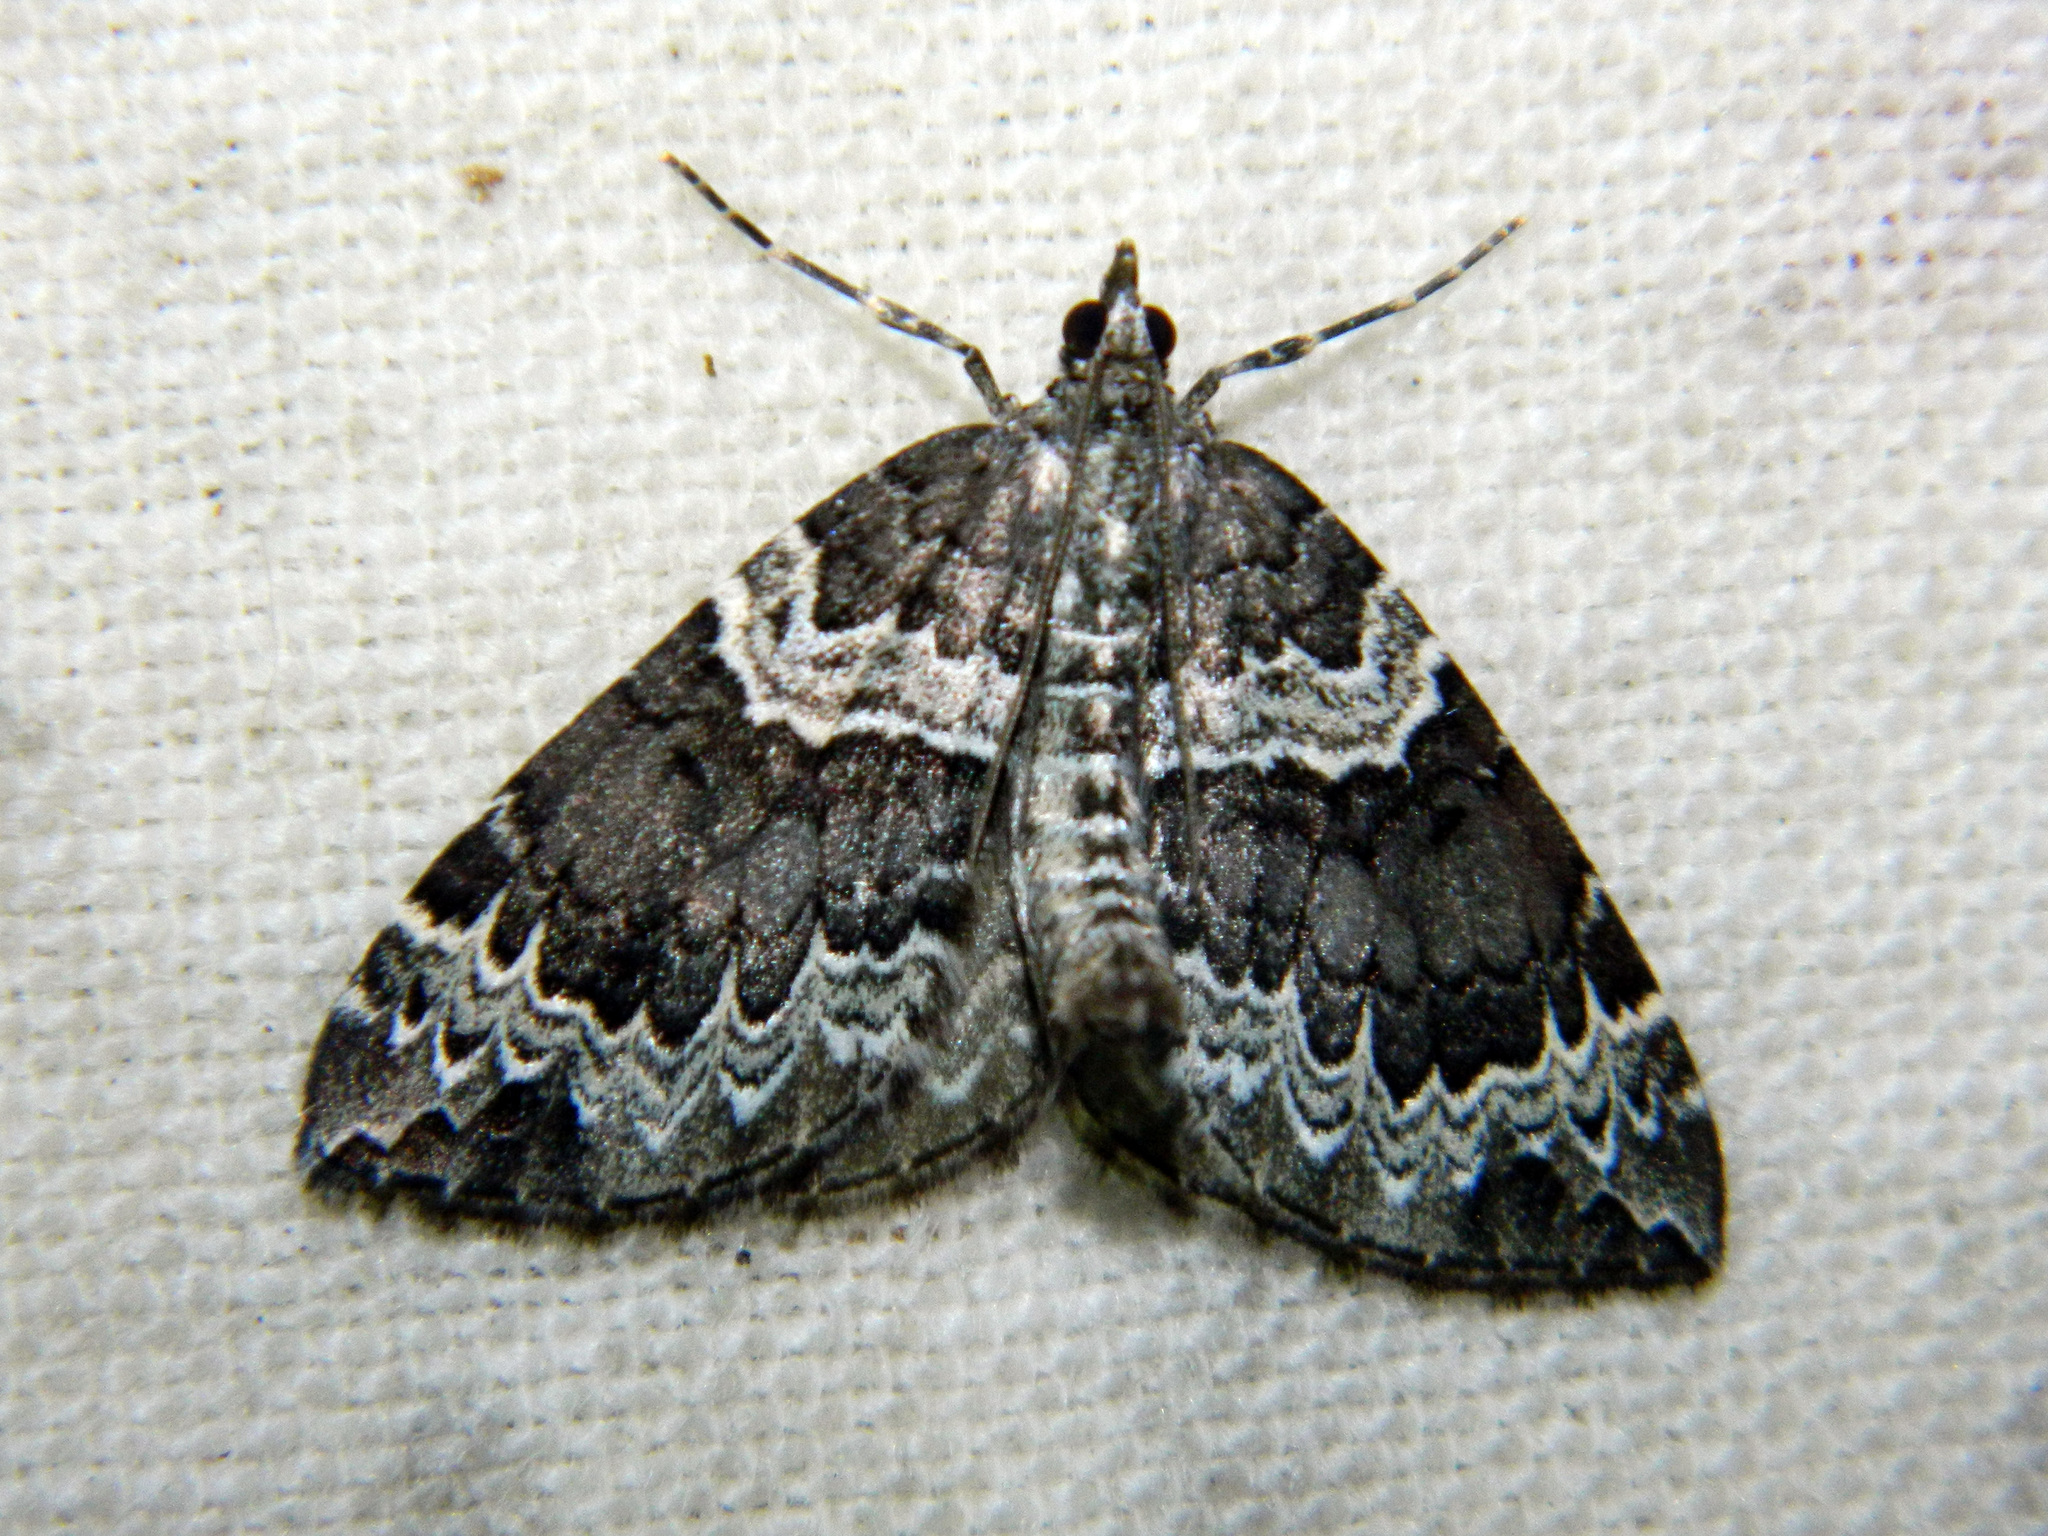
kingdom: Animalia
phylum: Arthropoda
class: Insecta
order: Lepidoptera
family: Geometridae
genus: Eulithis
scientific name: Eulithis explanata
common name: White eulithis
